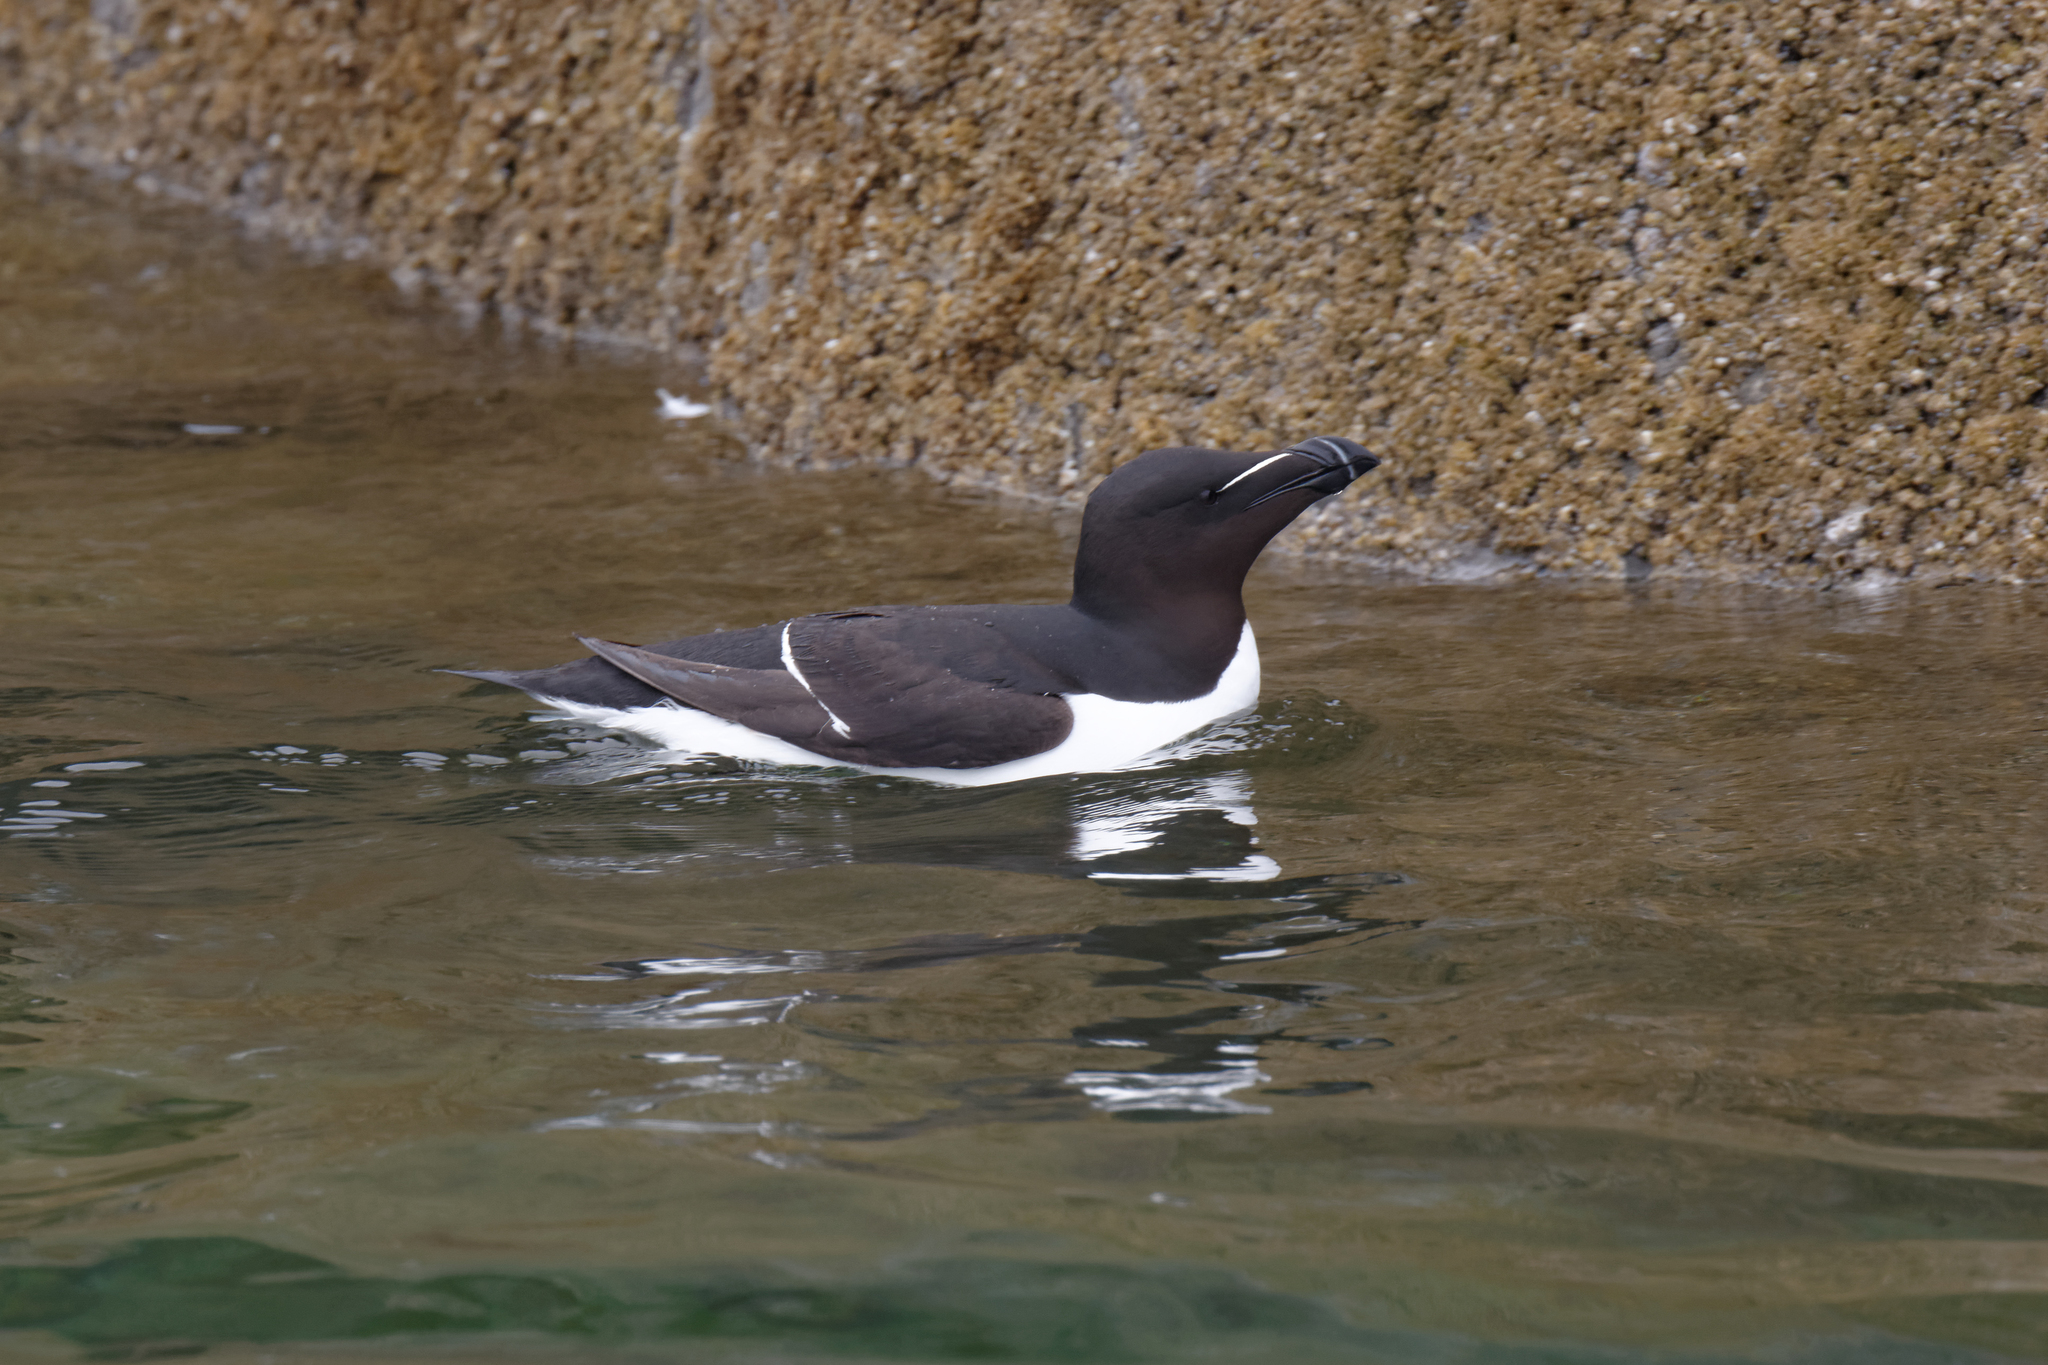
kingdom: Animalia
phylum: Chordata
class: Aves
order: Charadriiformes
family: Alcidae
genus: Alca
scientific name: Alca torda
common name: Razorbill
